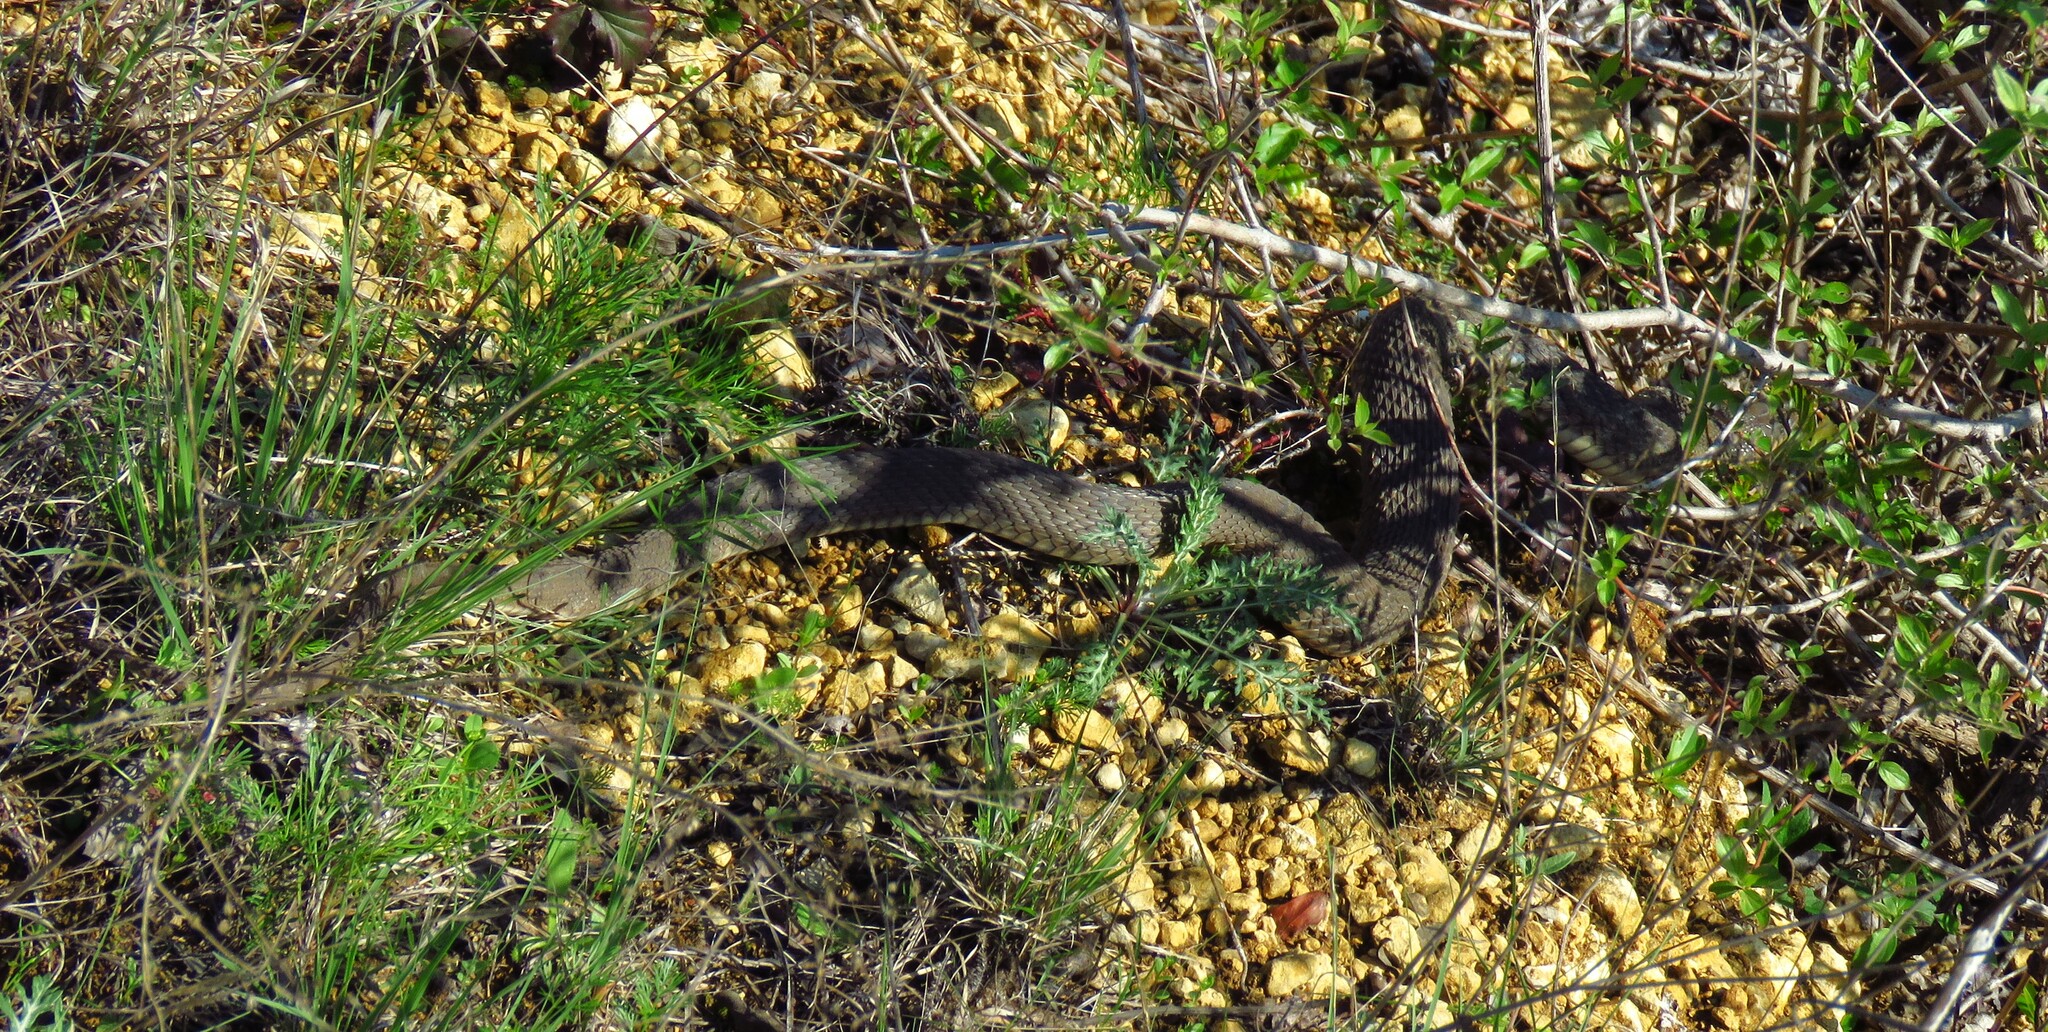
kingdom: Animalia
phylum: Chordata
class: Squamata
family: Colubridae
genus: Nerodia
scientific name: Nerodia erythrogaster
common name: Plainbelly water snake
